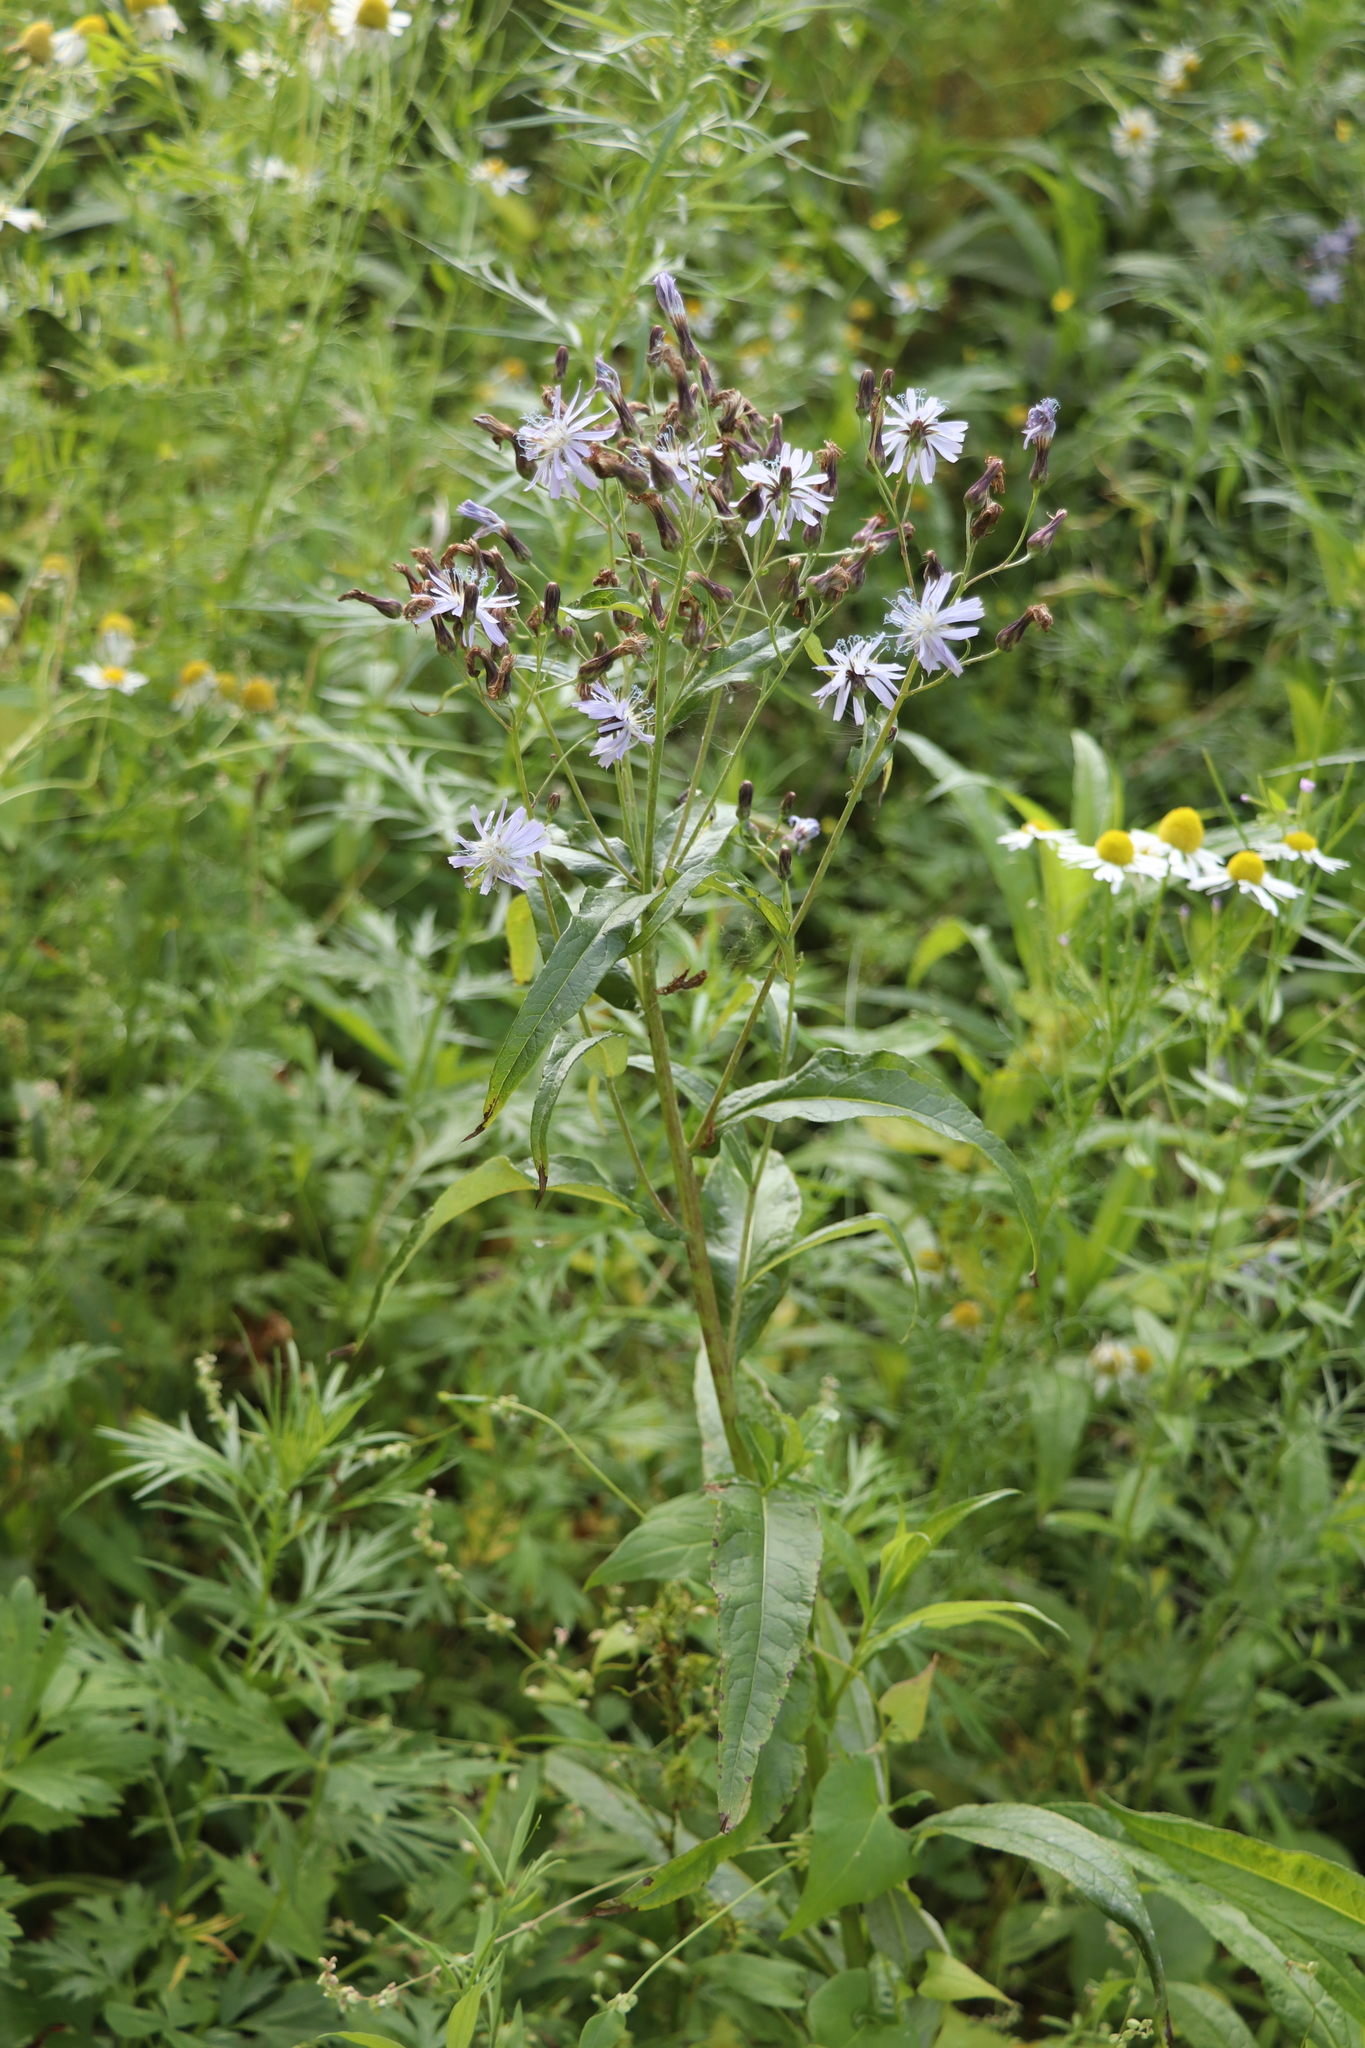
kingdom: Plantae
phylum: Tracheophyta
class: Magnoliopsida
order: Asterales
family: Asteraceae
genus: Lactuca
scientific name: Lactuca sibirica
